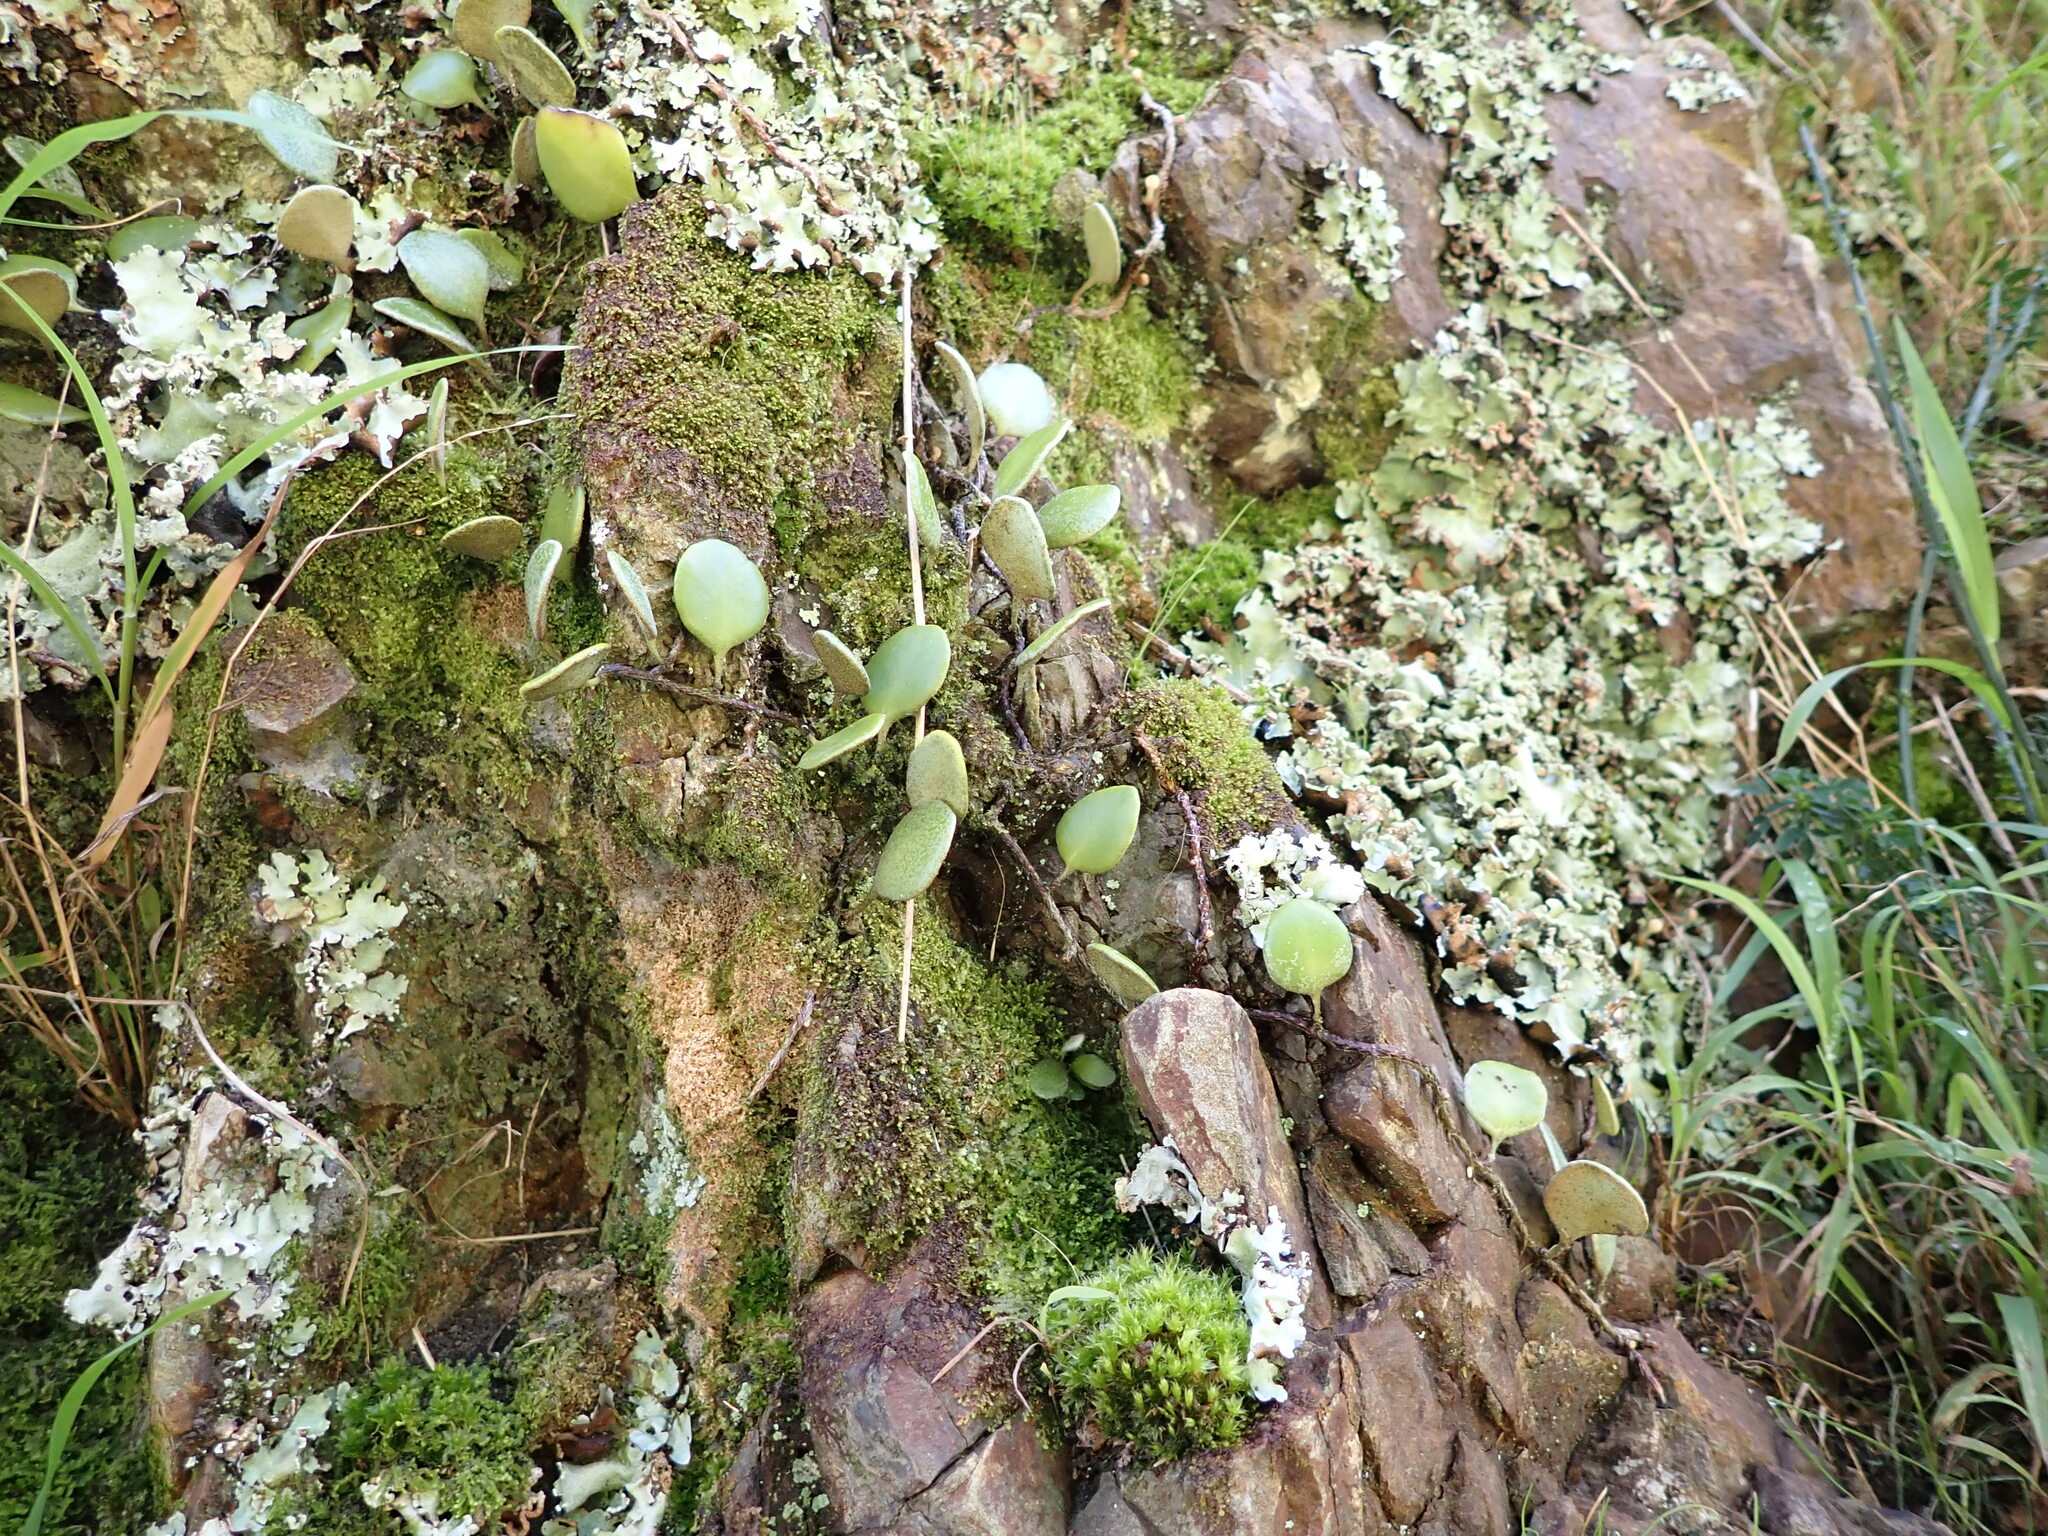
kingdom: Plantae
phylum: Tracheophyta
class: Polypodiopsida
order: Polypodiales
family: Polypodiaceae
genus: Pyrrosia
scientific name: Pyrrosia eleagnifolia
